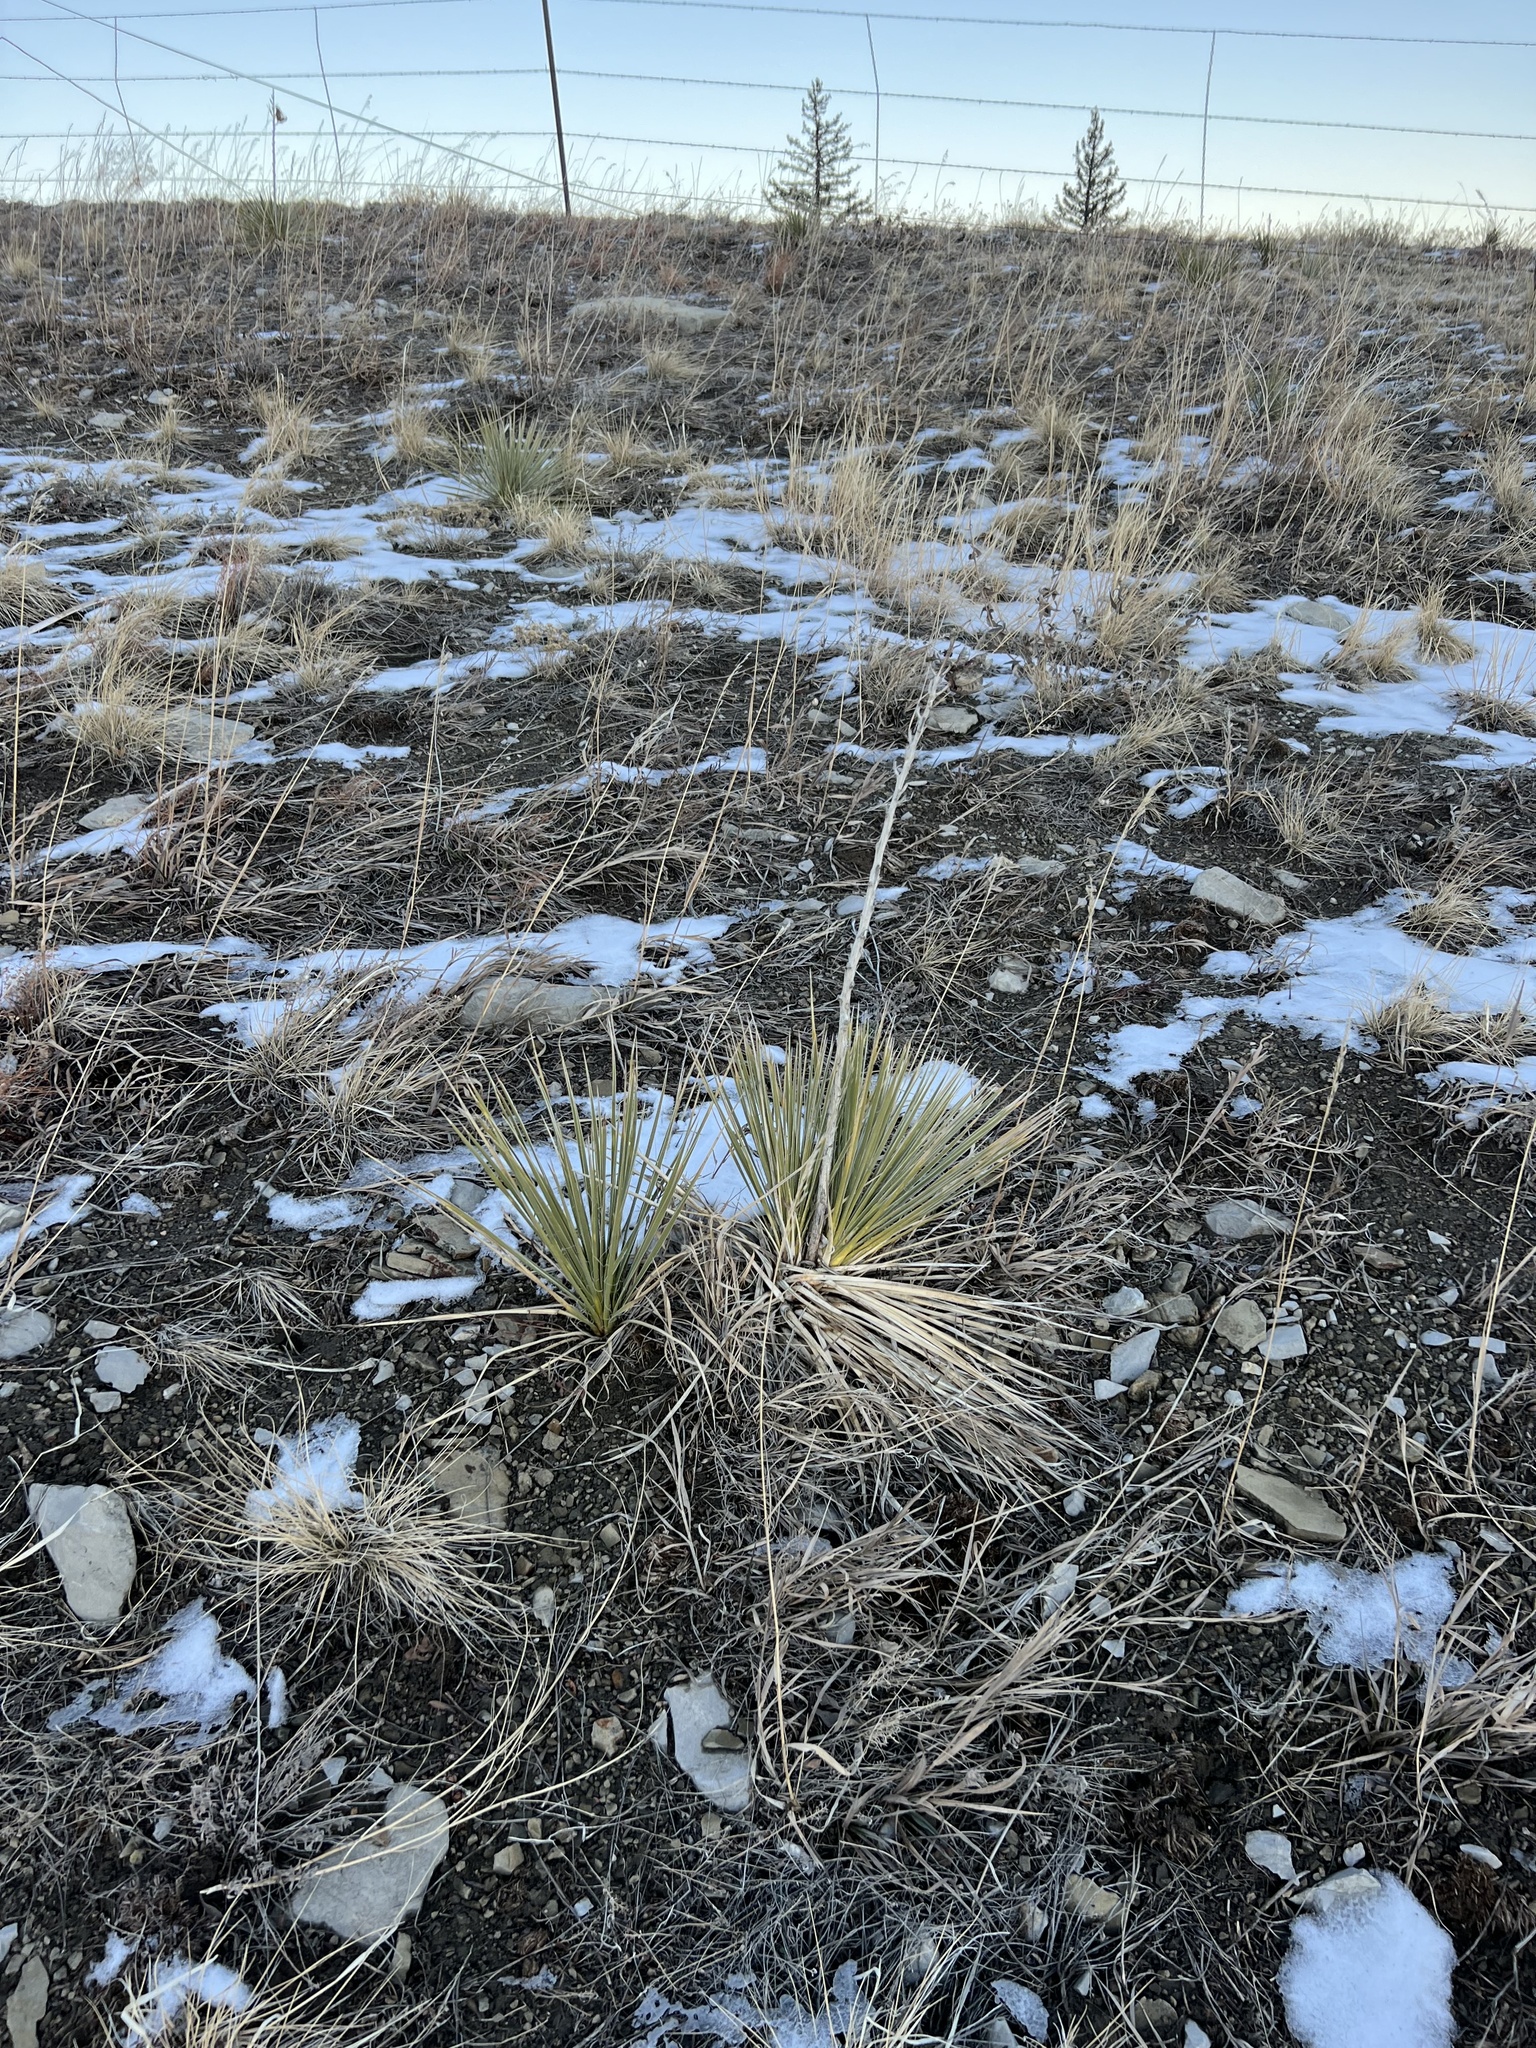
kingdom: Plantae
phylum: Tracheophyta
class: Liliopsida
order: Asparagales
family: Asparagaceae
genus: Yucca
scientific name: Yucca glauca
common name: Great plains yucca
